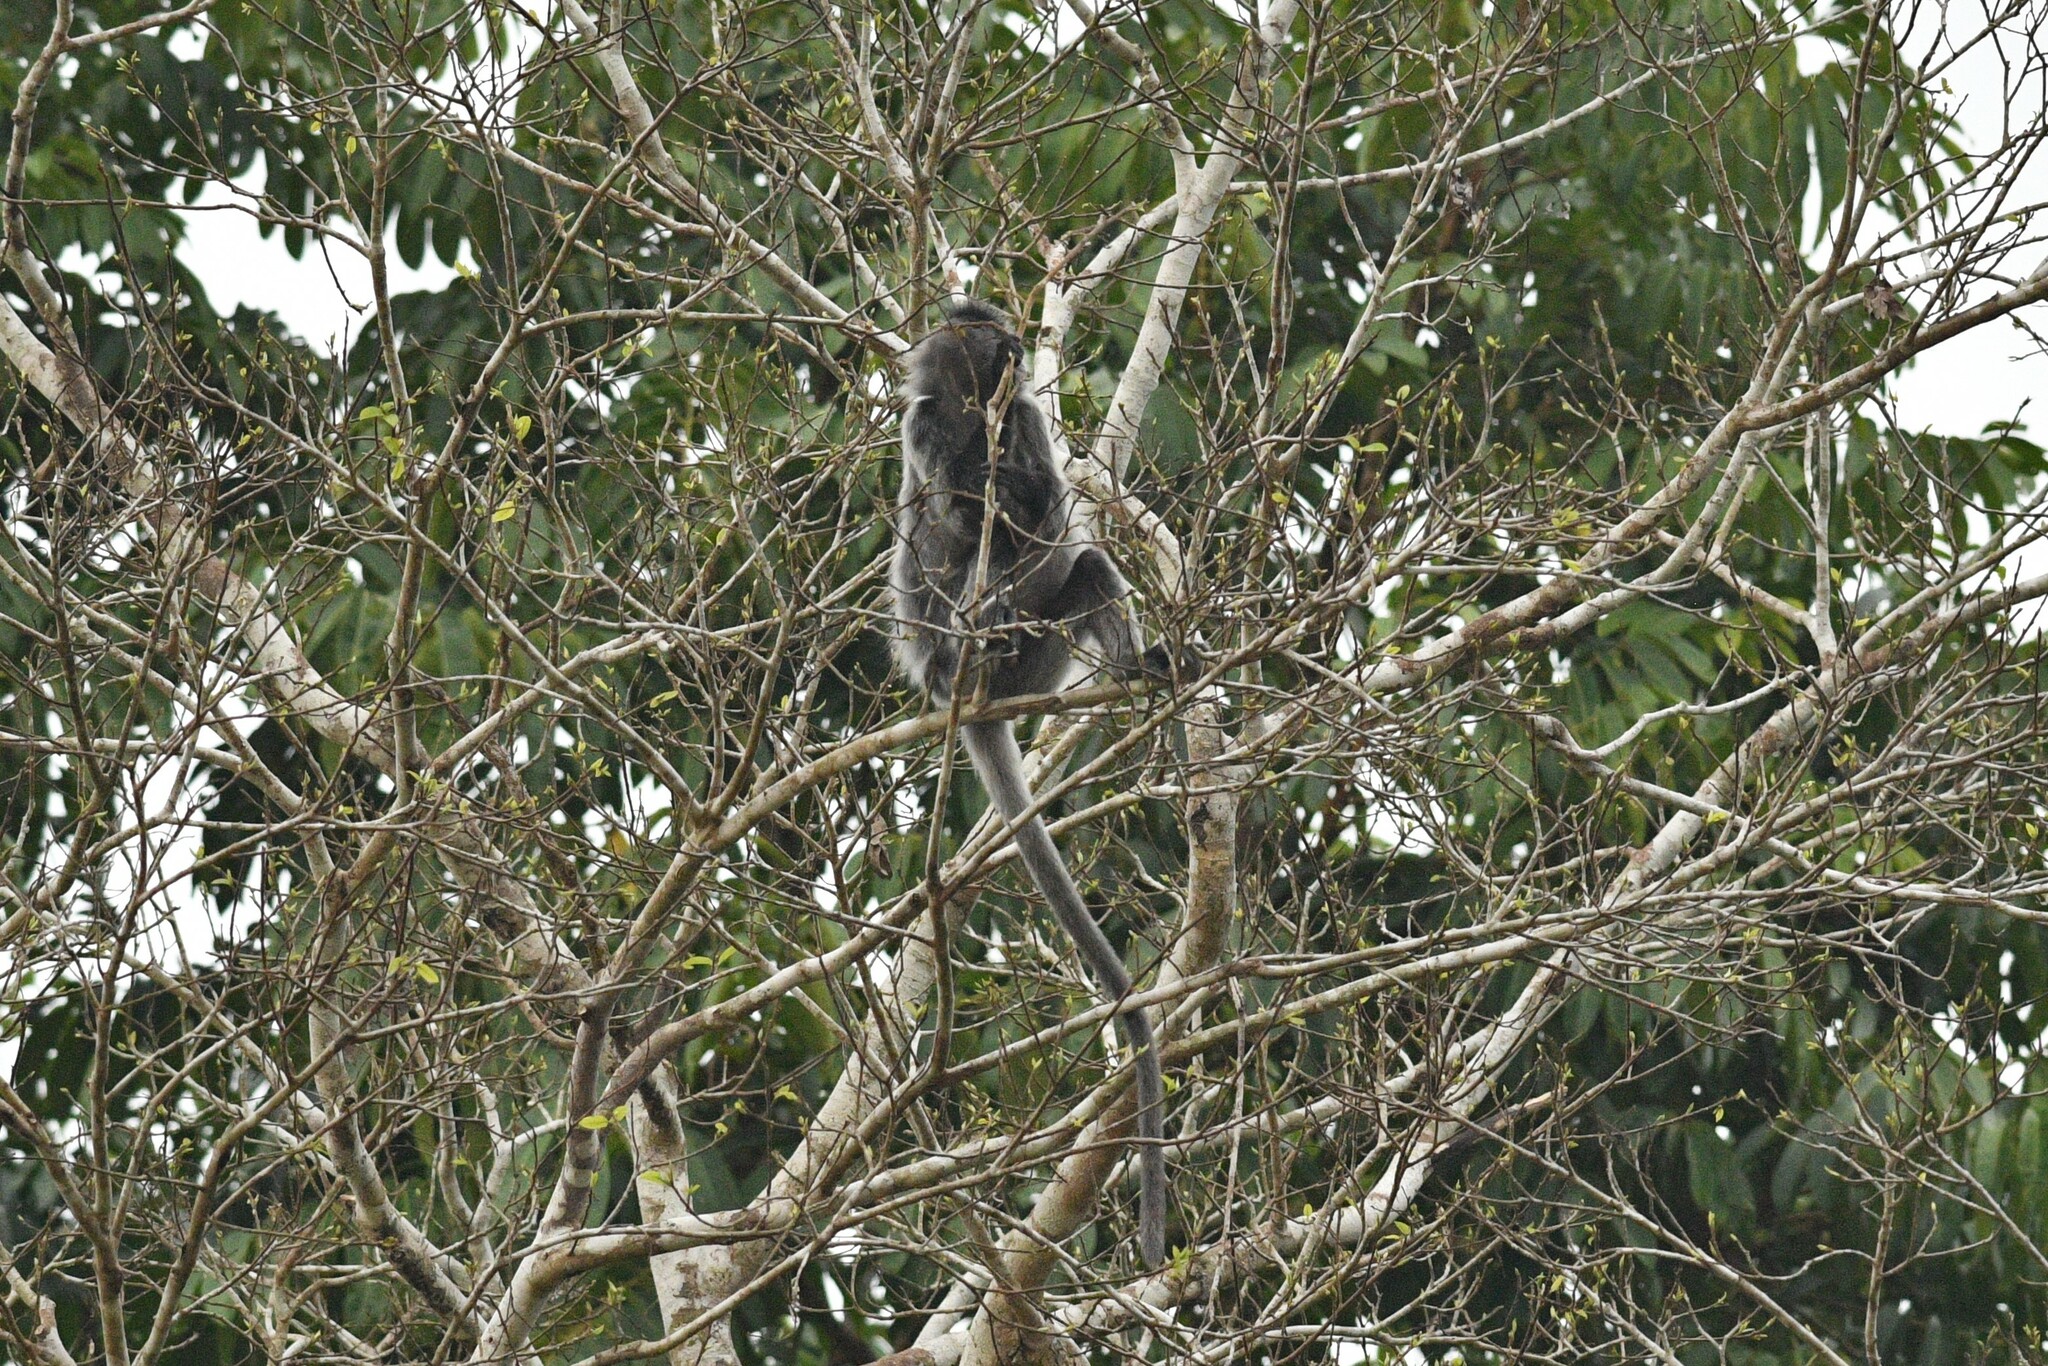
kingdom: Animalia
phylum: Chordata
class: Mammalia
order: Primates
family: Cercopithecidae
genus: Trachypithecus
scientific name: Trachypithecus cristatus
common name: Silvery lutung
